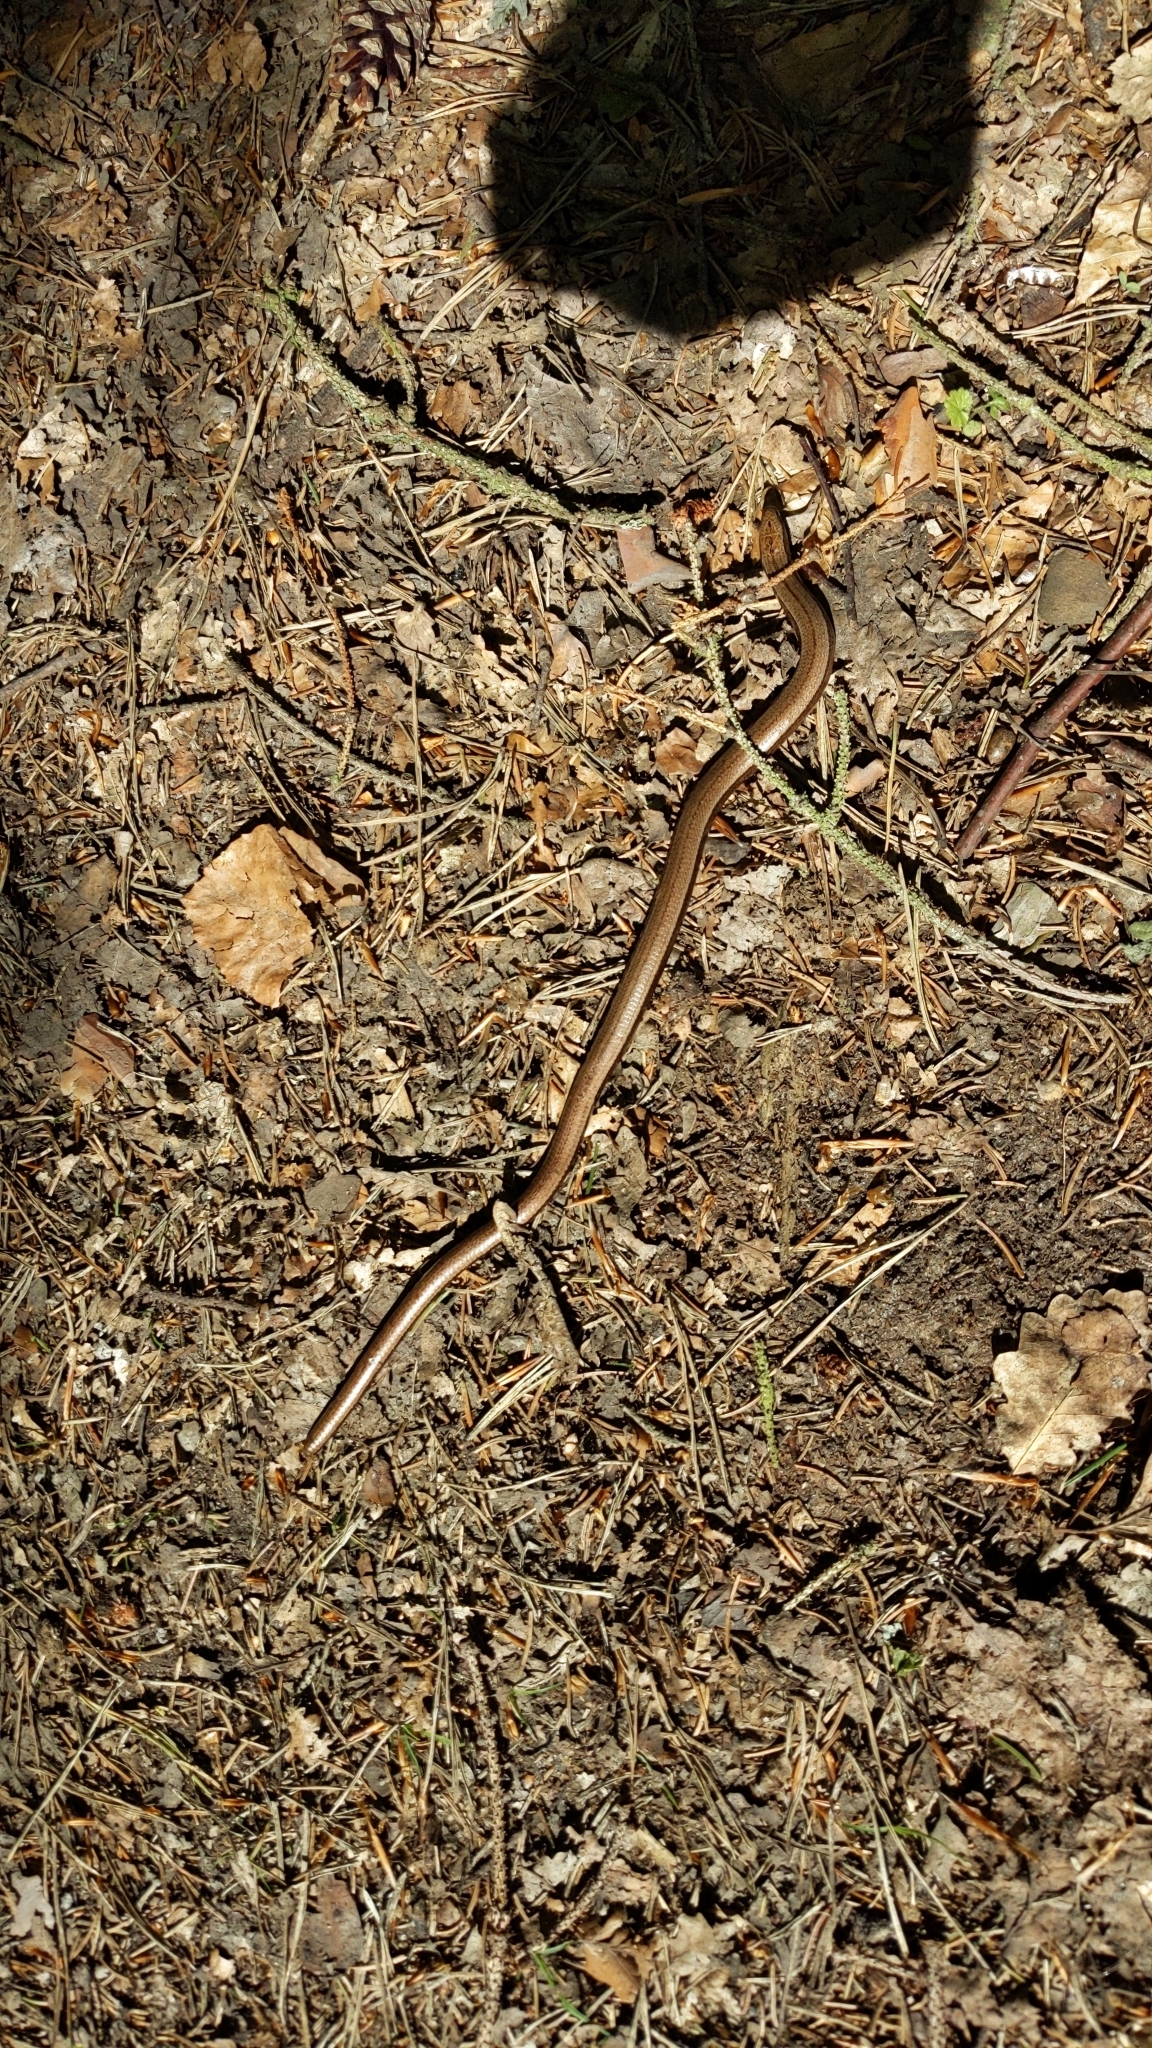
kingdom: Animalia
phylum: Chordata
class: Squamata
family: Anguidae
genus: Anguis
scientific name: Anguis fragilis
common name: Slow worm
